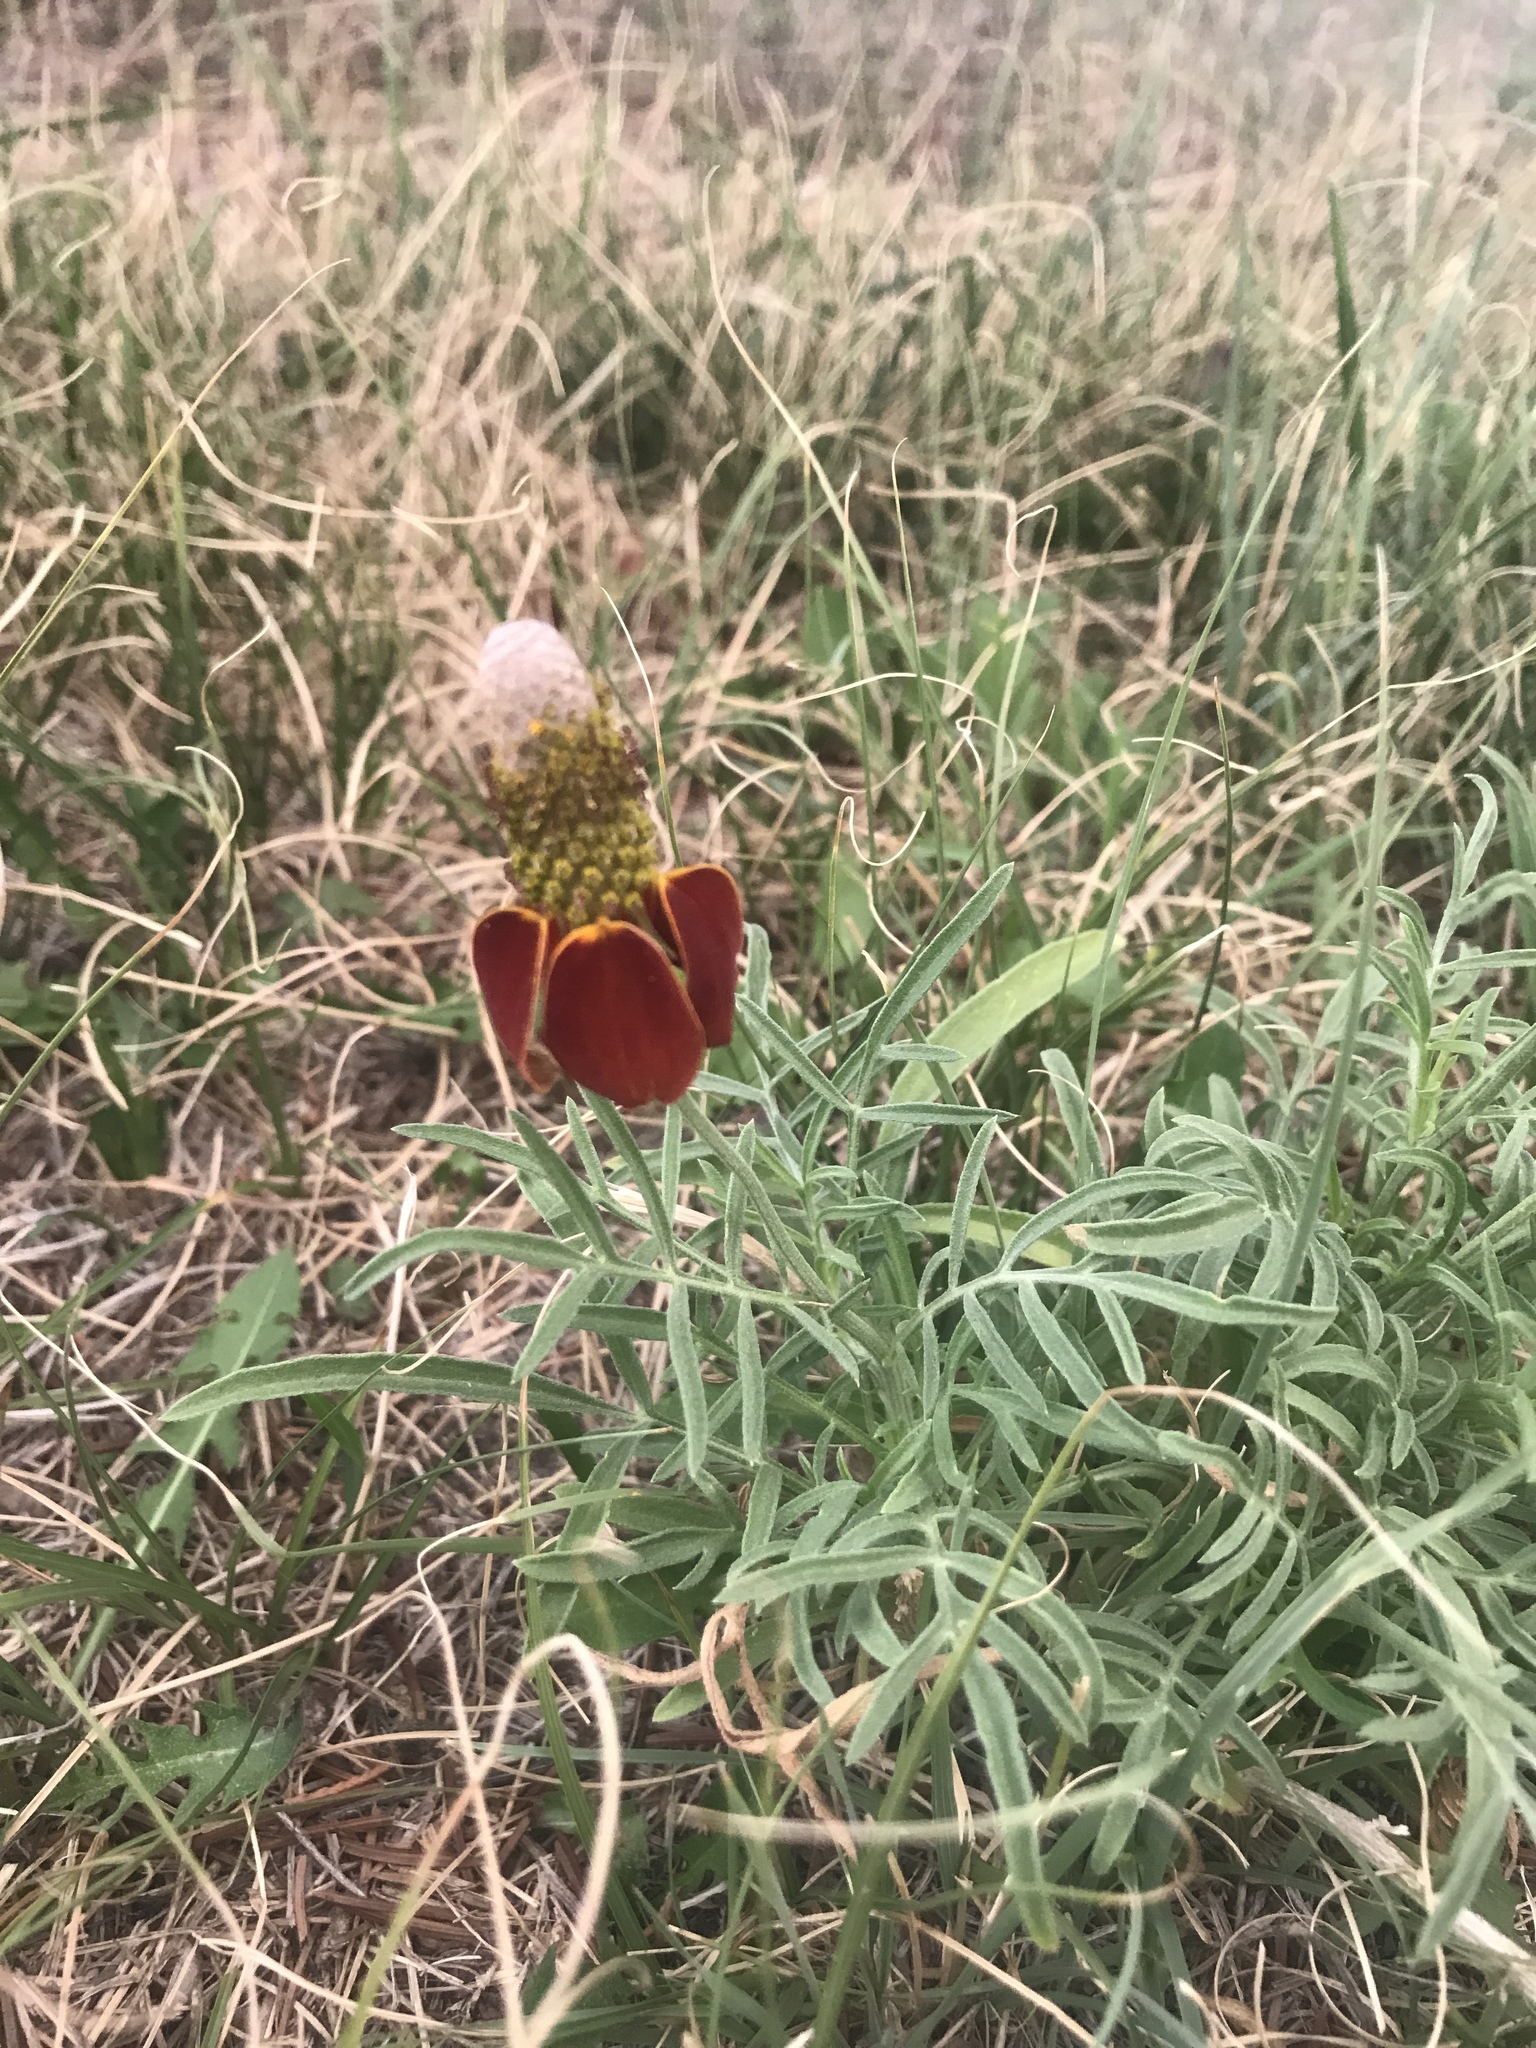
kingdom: Plantae
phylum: Tracheophyta
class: Magnoliopsida
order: Asterales
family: Asteraceae
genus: Ratibida
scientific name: Ratibida columnifera
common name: Prairie coneflower
